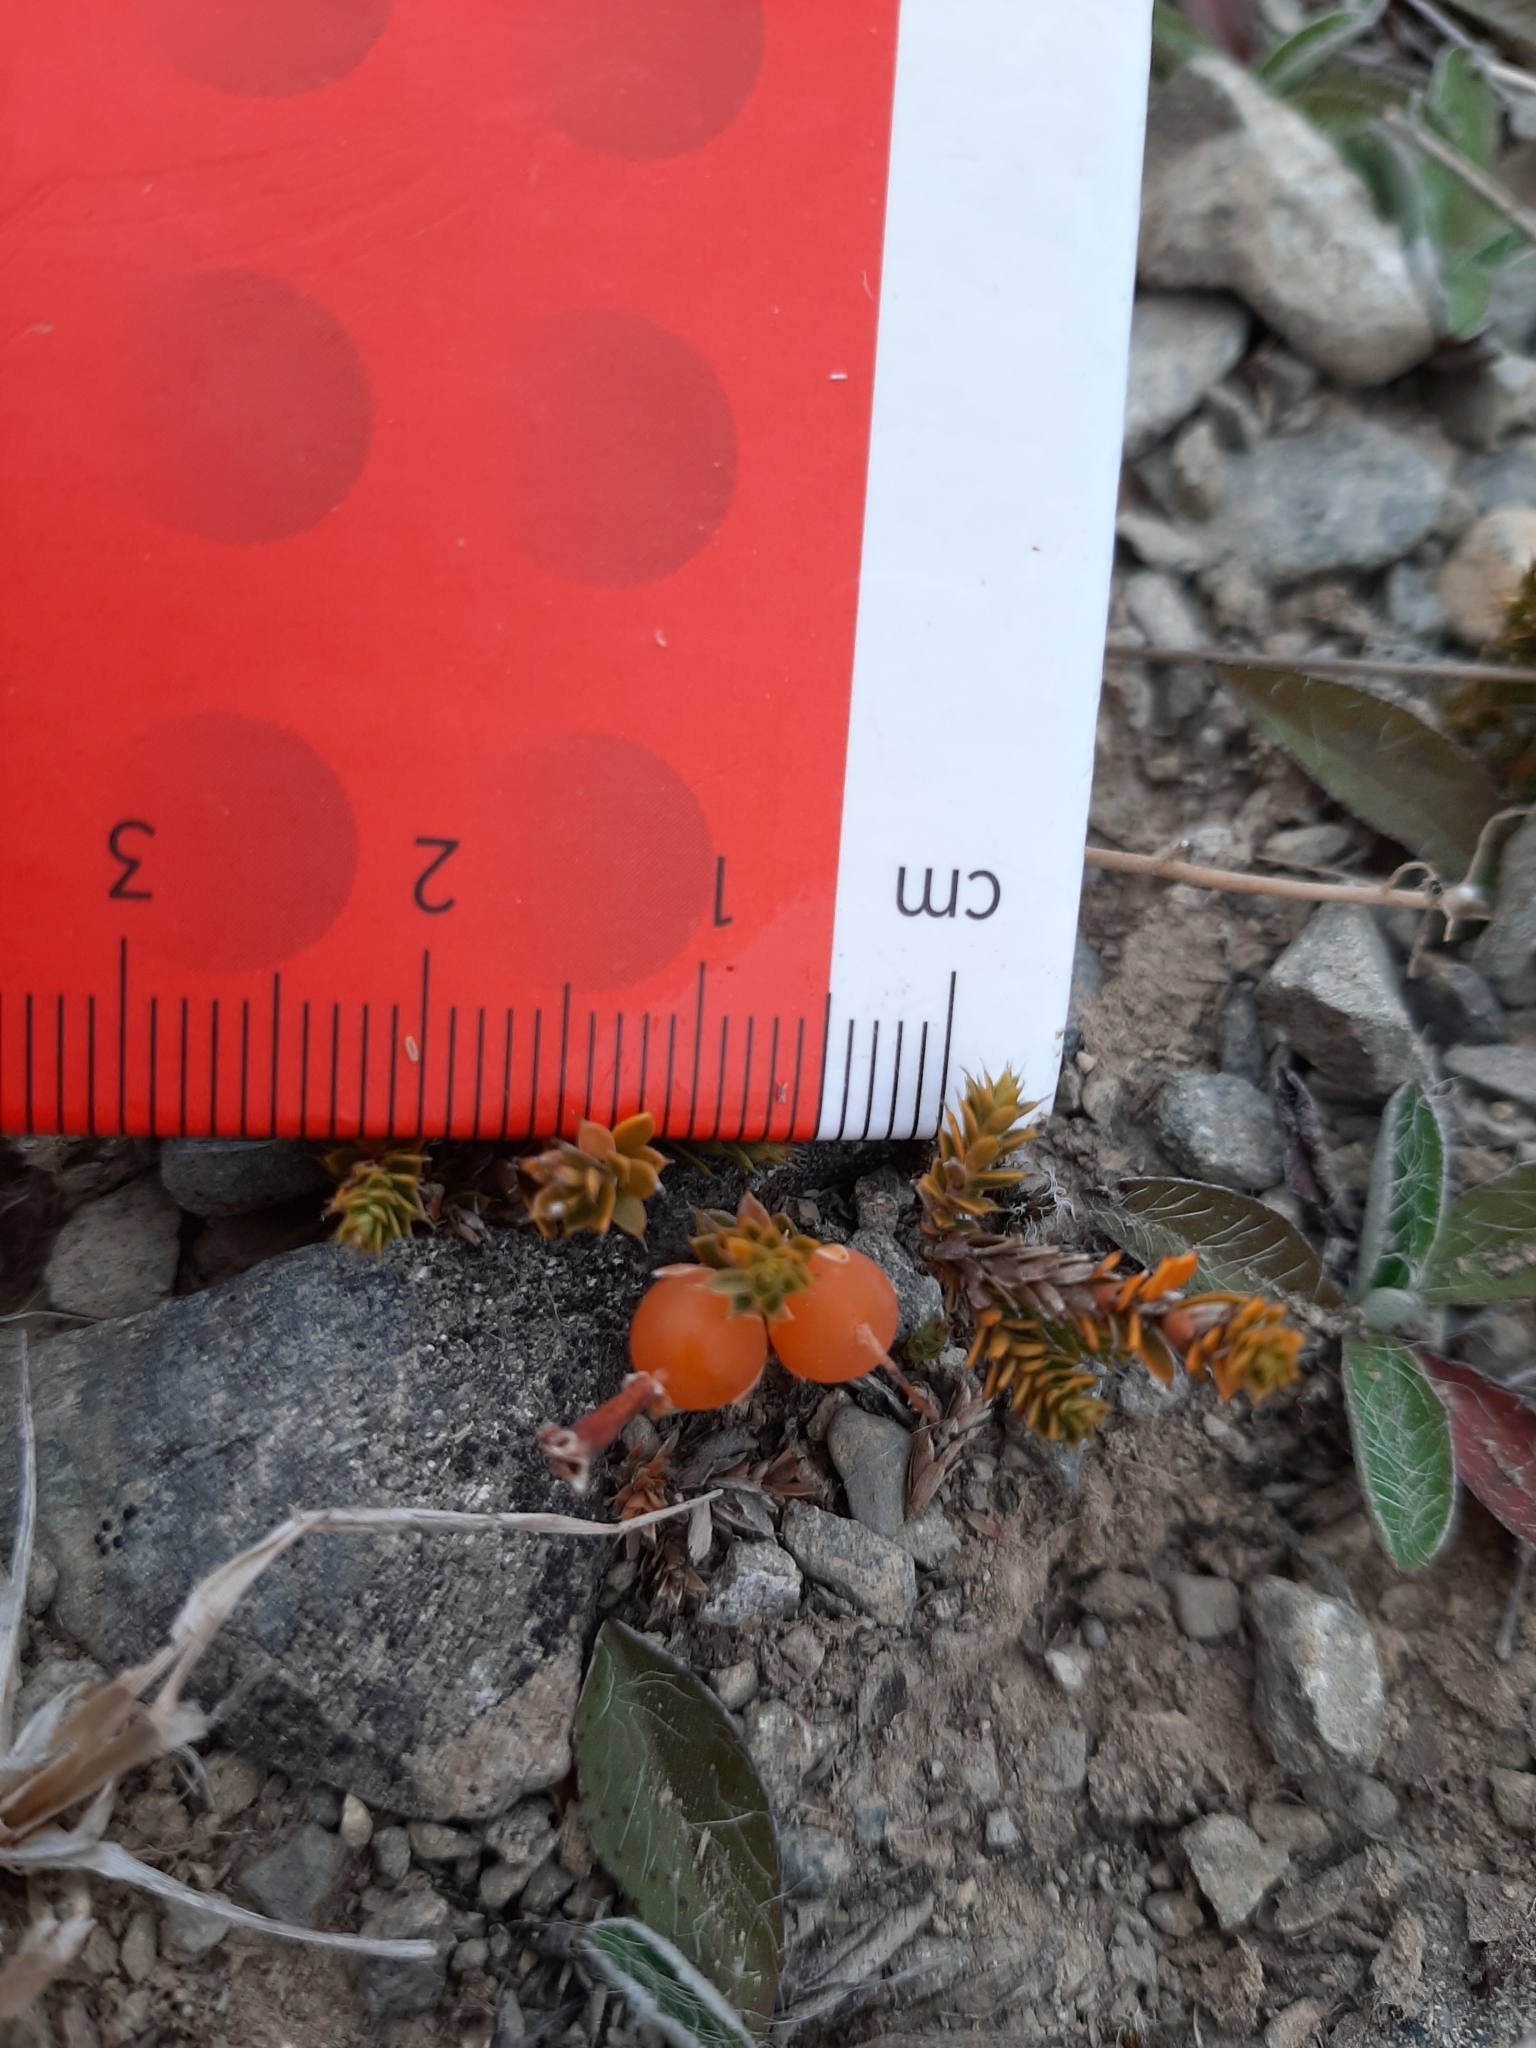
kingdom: Plantae
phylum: Tracheophyta
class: Magnoliopsida
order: Ericales
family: Ericaceae
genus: Styphelia
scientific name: Styphelia nesophila
